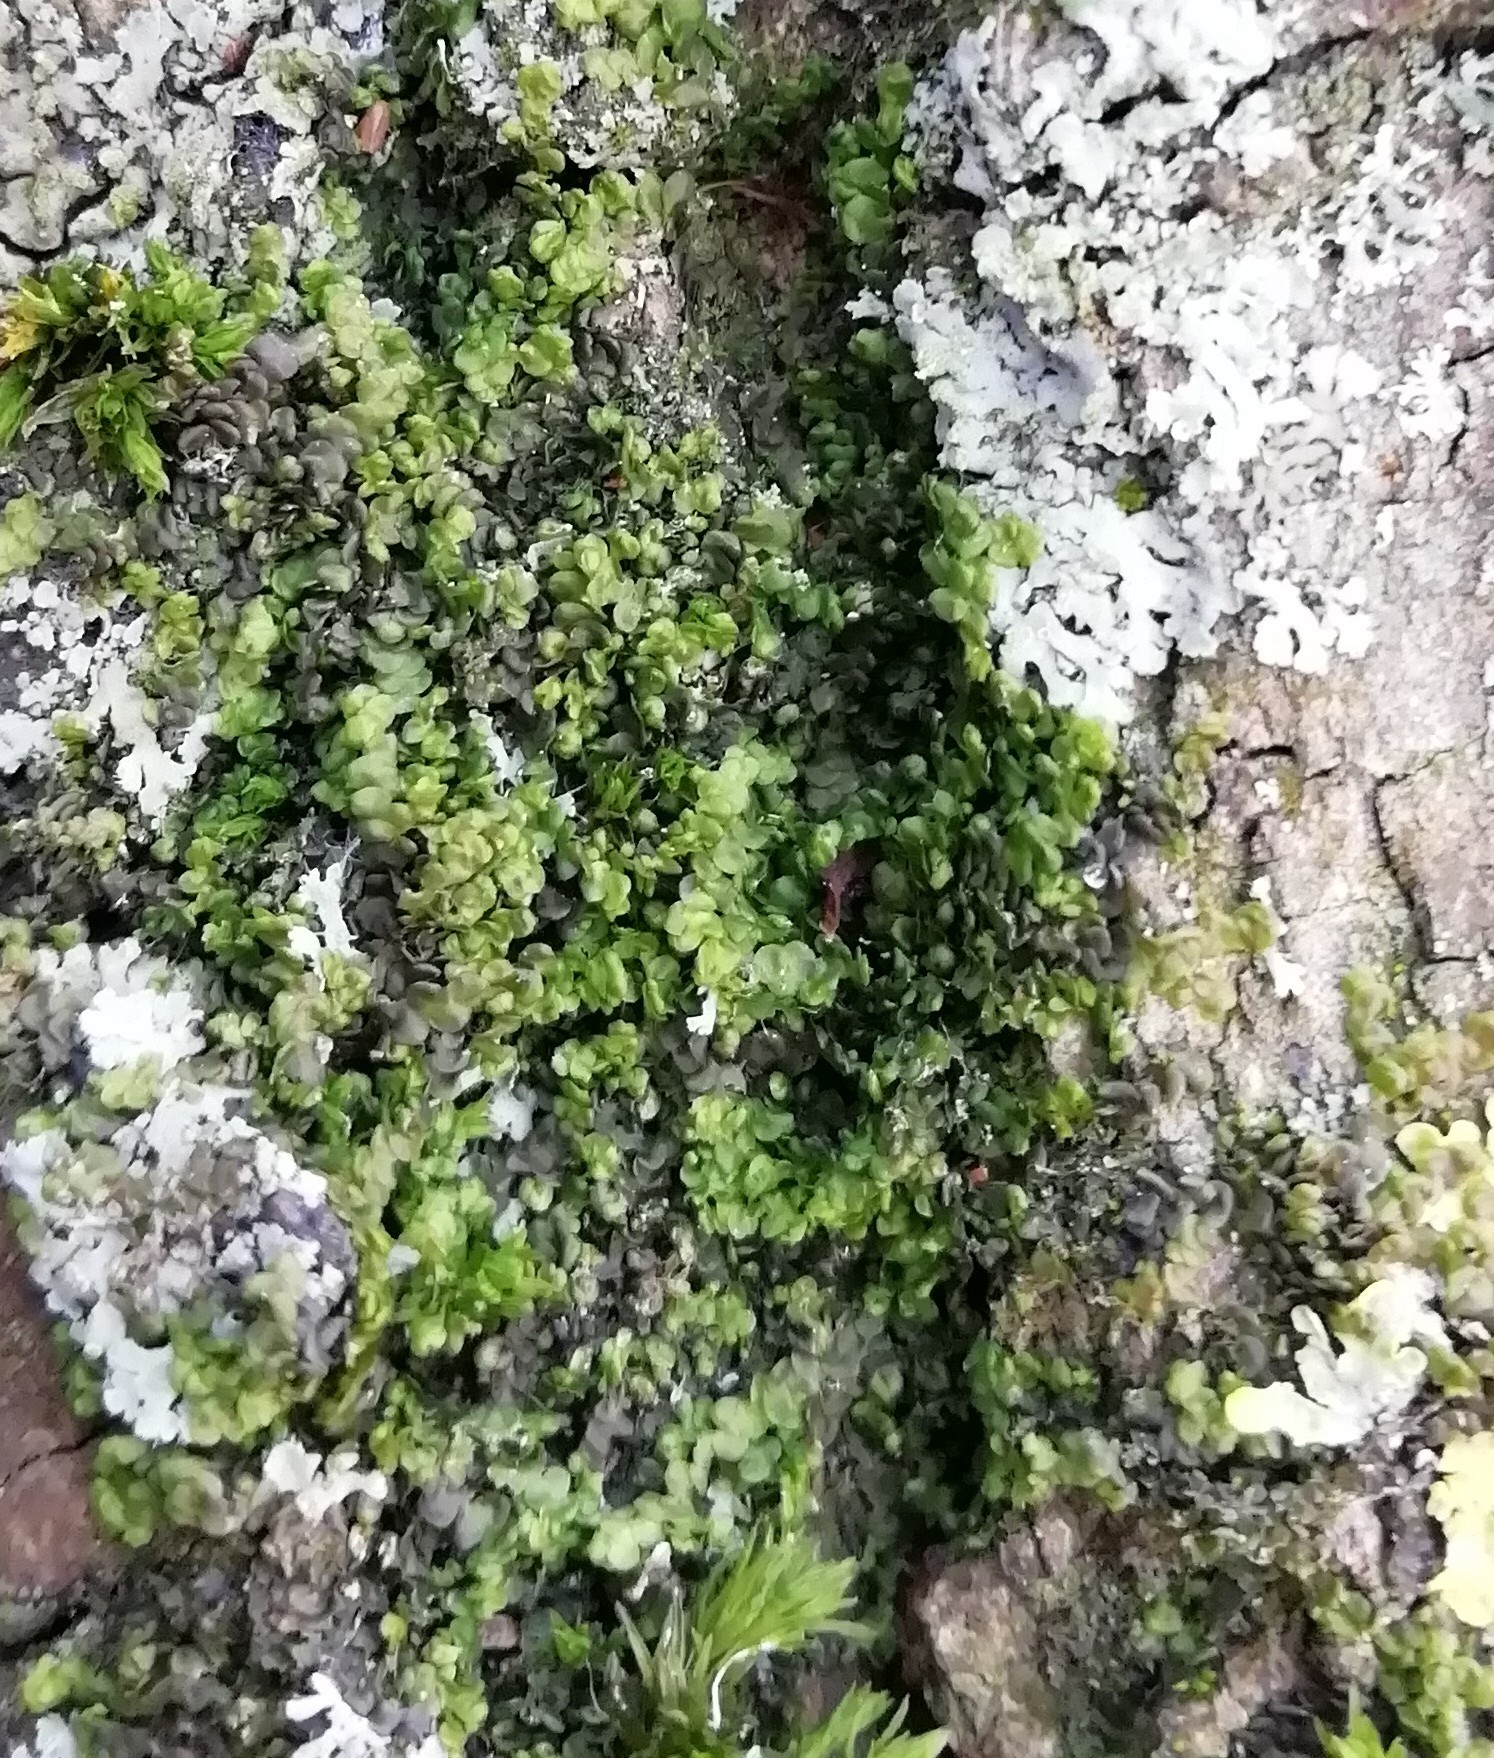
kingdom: Plantae
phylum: Marchantiophyta
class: Jungermanniopsida
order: Porellales
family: Frullaniaceae
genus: Frullania
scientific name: Frullania dilatata
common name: Dilated scalewort
